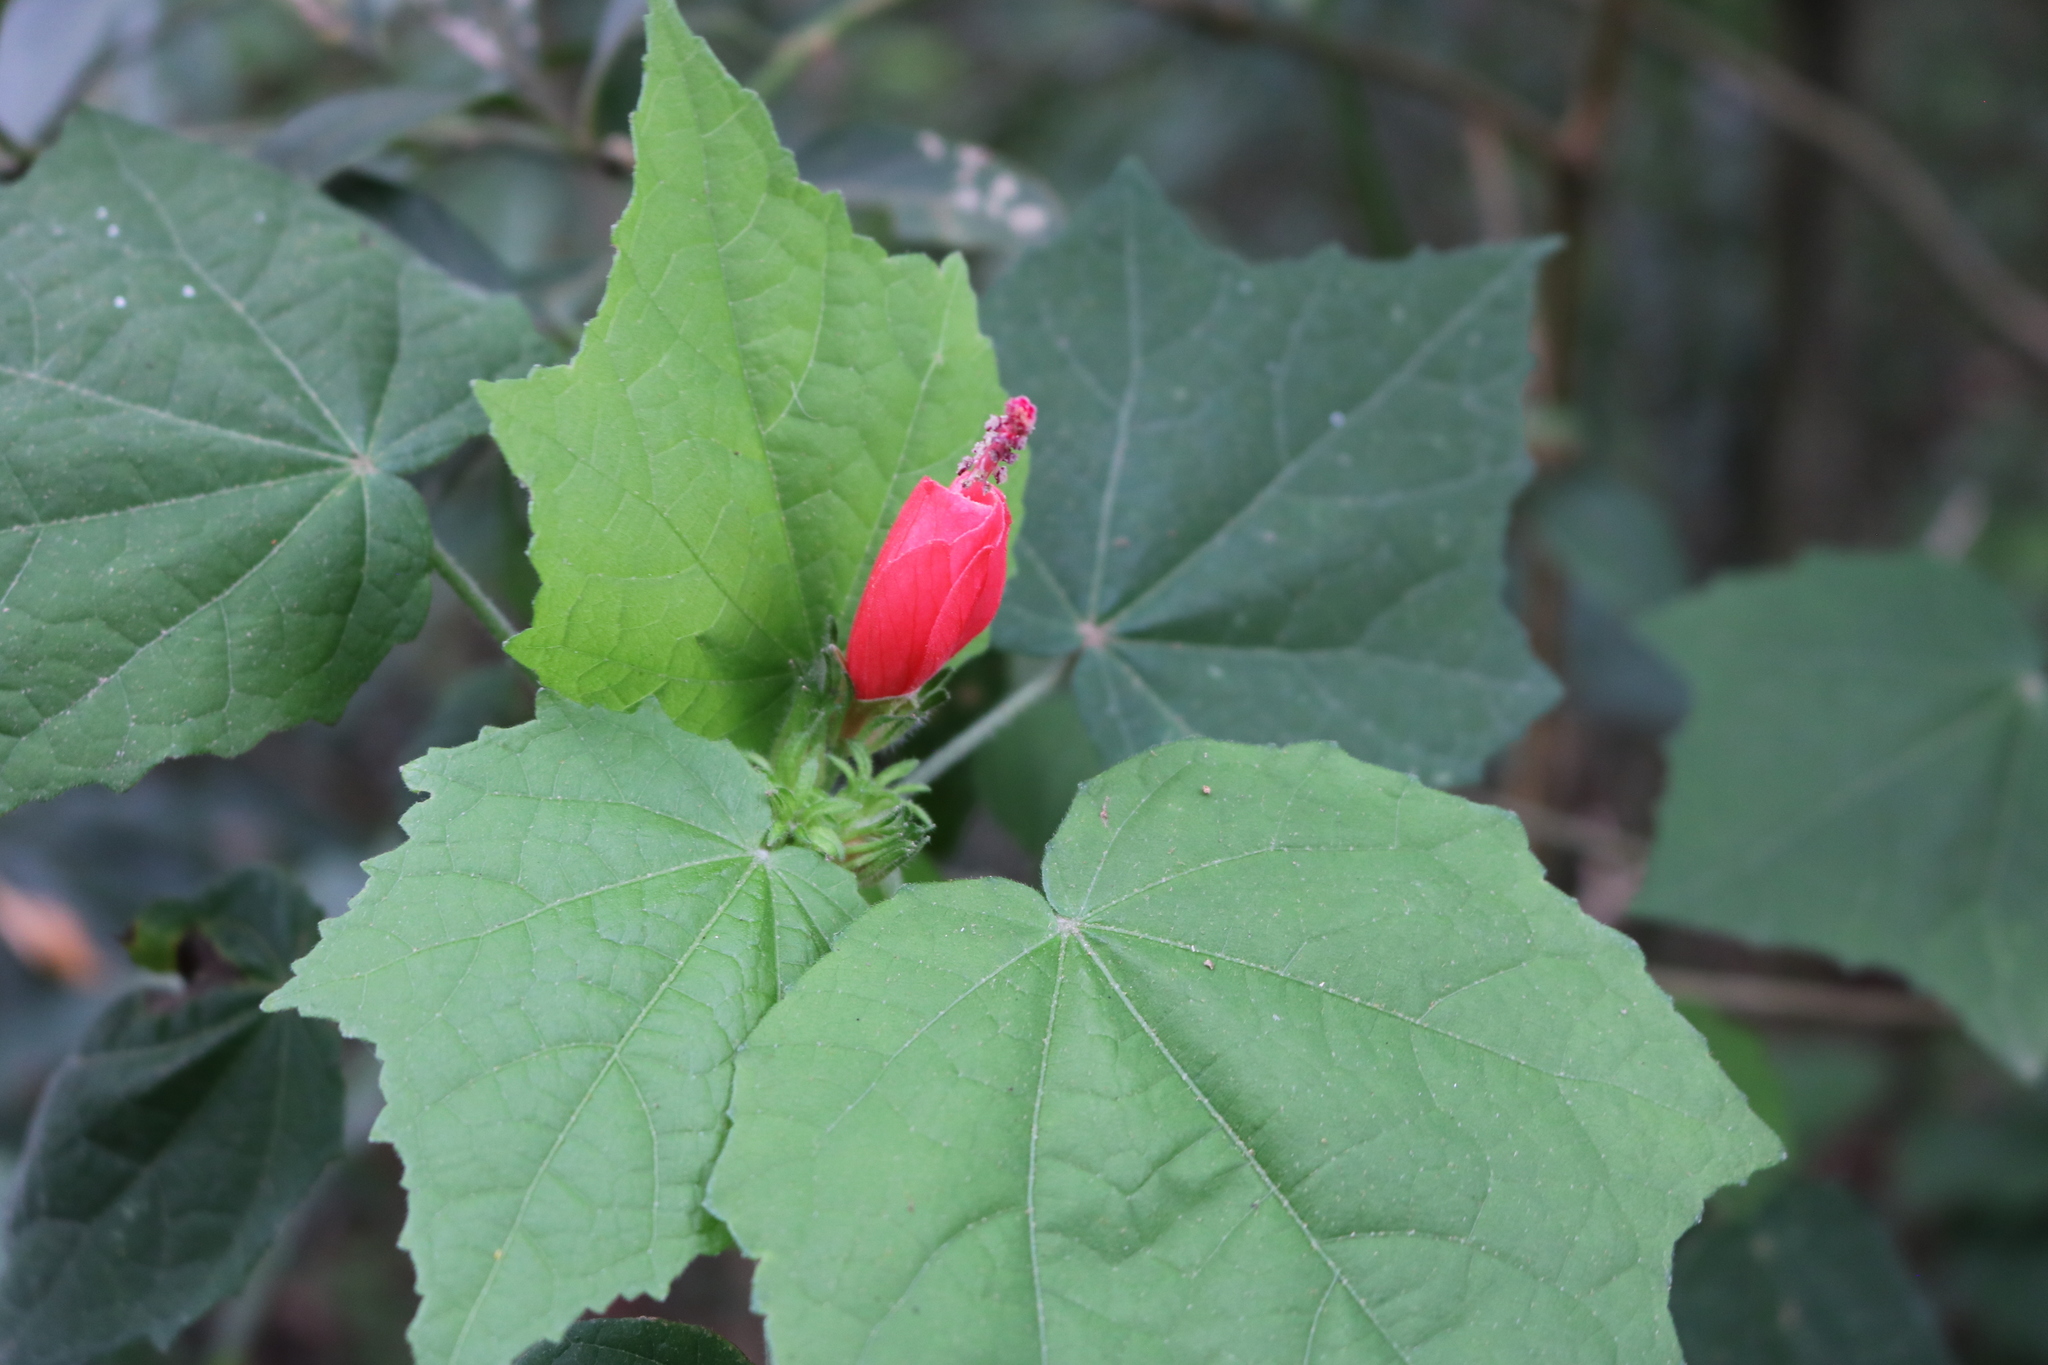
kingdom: Plantae
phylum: Tracheophyta
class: Magnoliopsida
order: Malvales
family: Malvaceae
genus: Malvaviscus
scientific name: Malvaviscus arboreus
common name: Wax mallow
